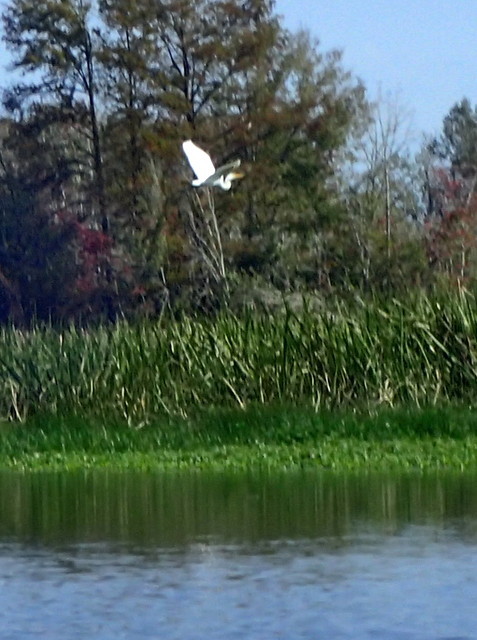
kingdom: Animalia
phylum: Chordata
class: Aves
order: Pelecaniformes
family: Ardeidae
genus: Ardea
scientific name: Ardea alba
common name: Great egret
